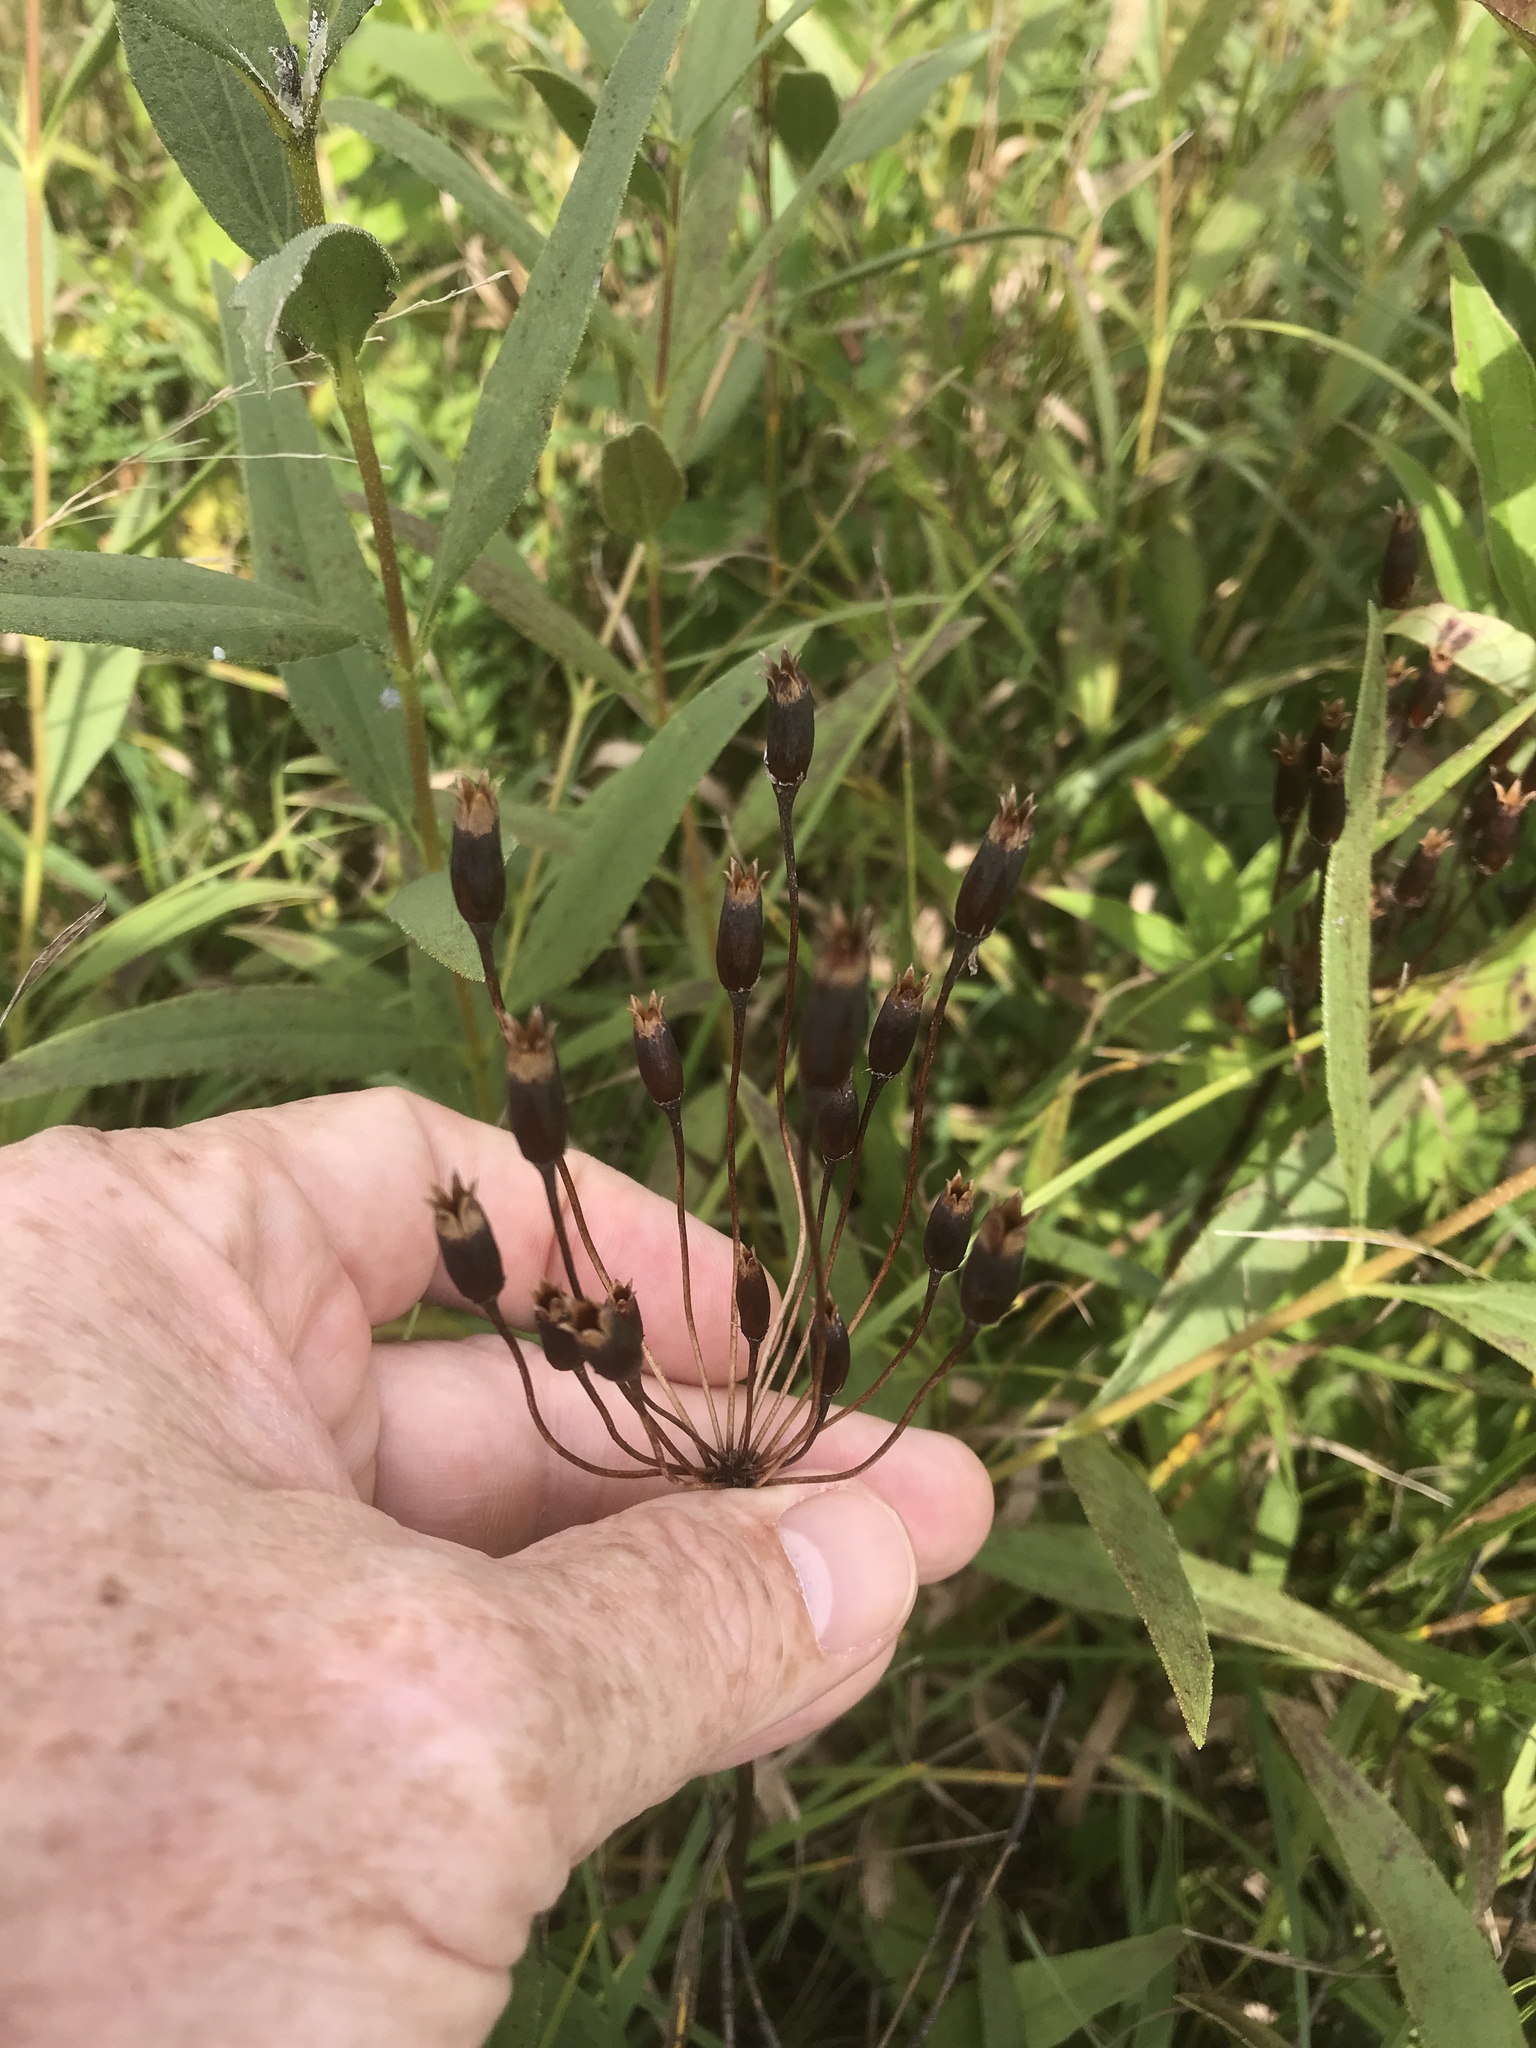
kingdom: Plantae
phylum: Tracheophyta
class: Magnoliopsida
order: Ericales
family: Primulaceae
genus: Dodecatheon
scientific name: Dodecatheon meadia
